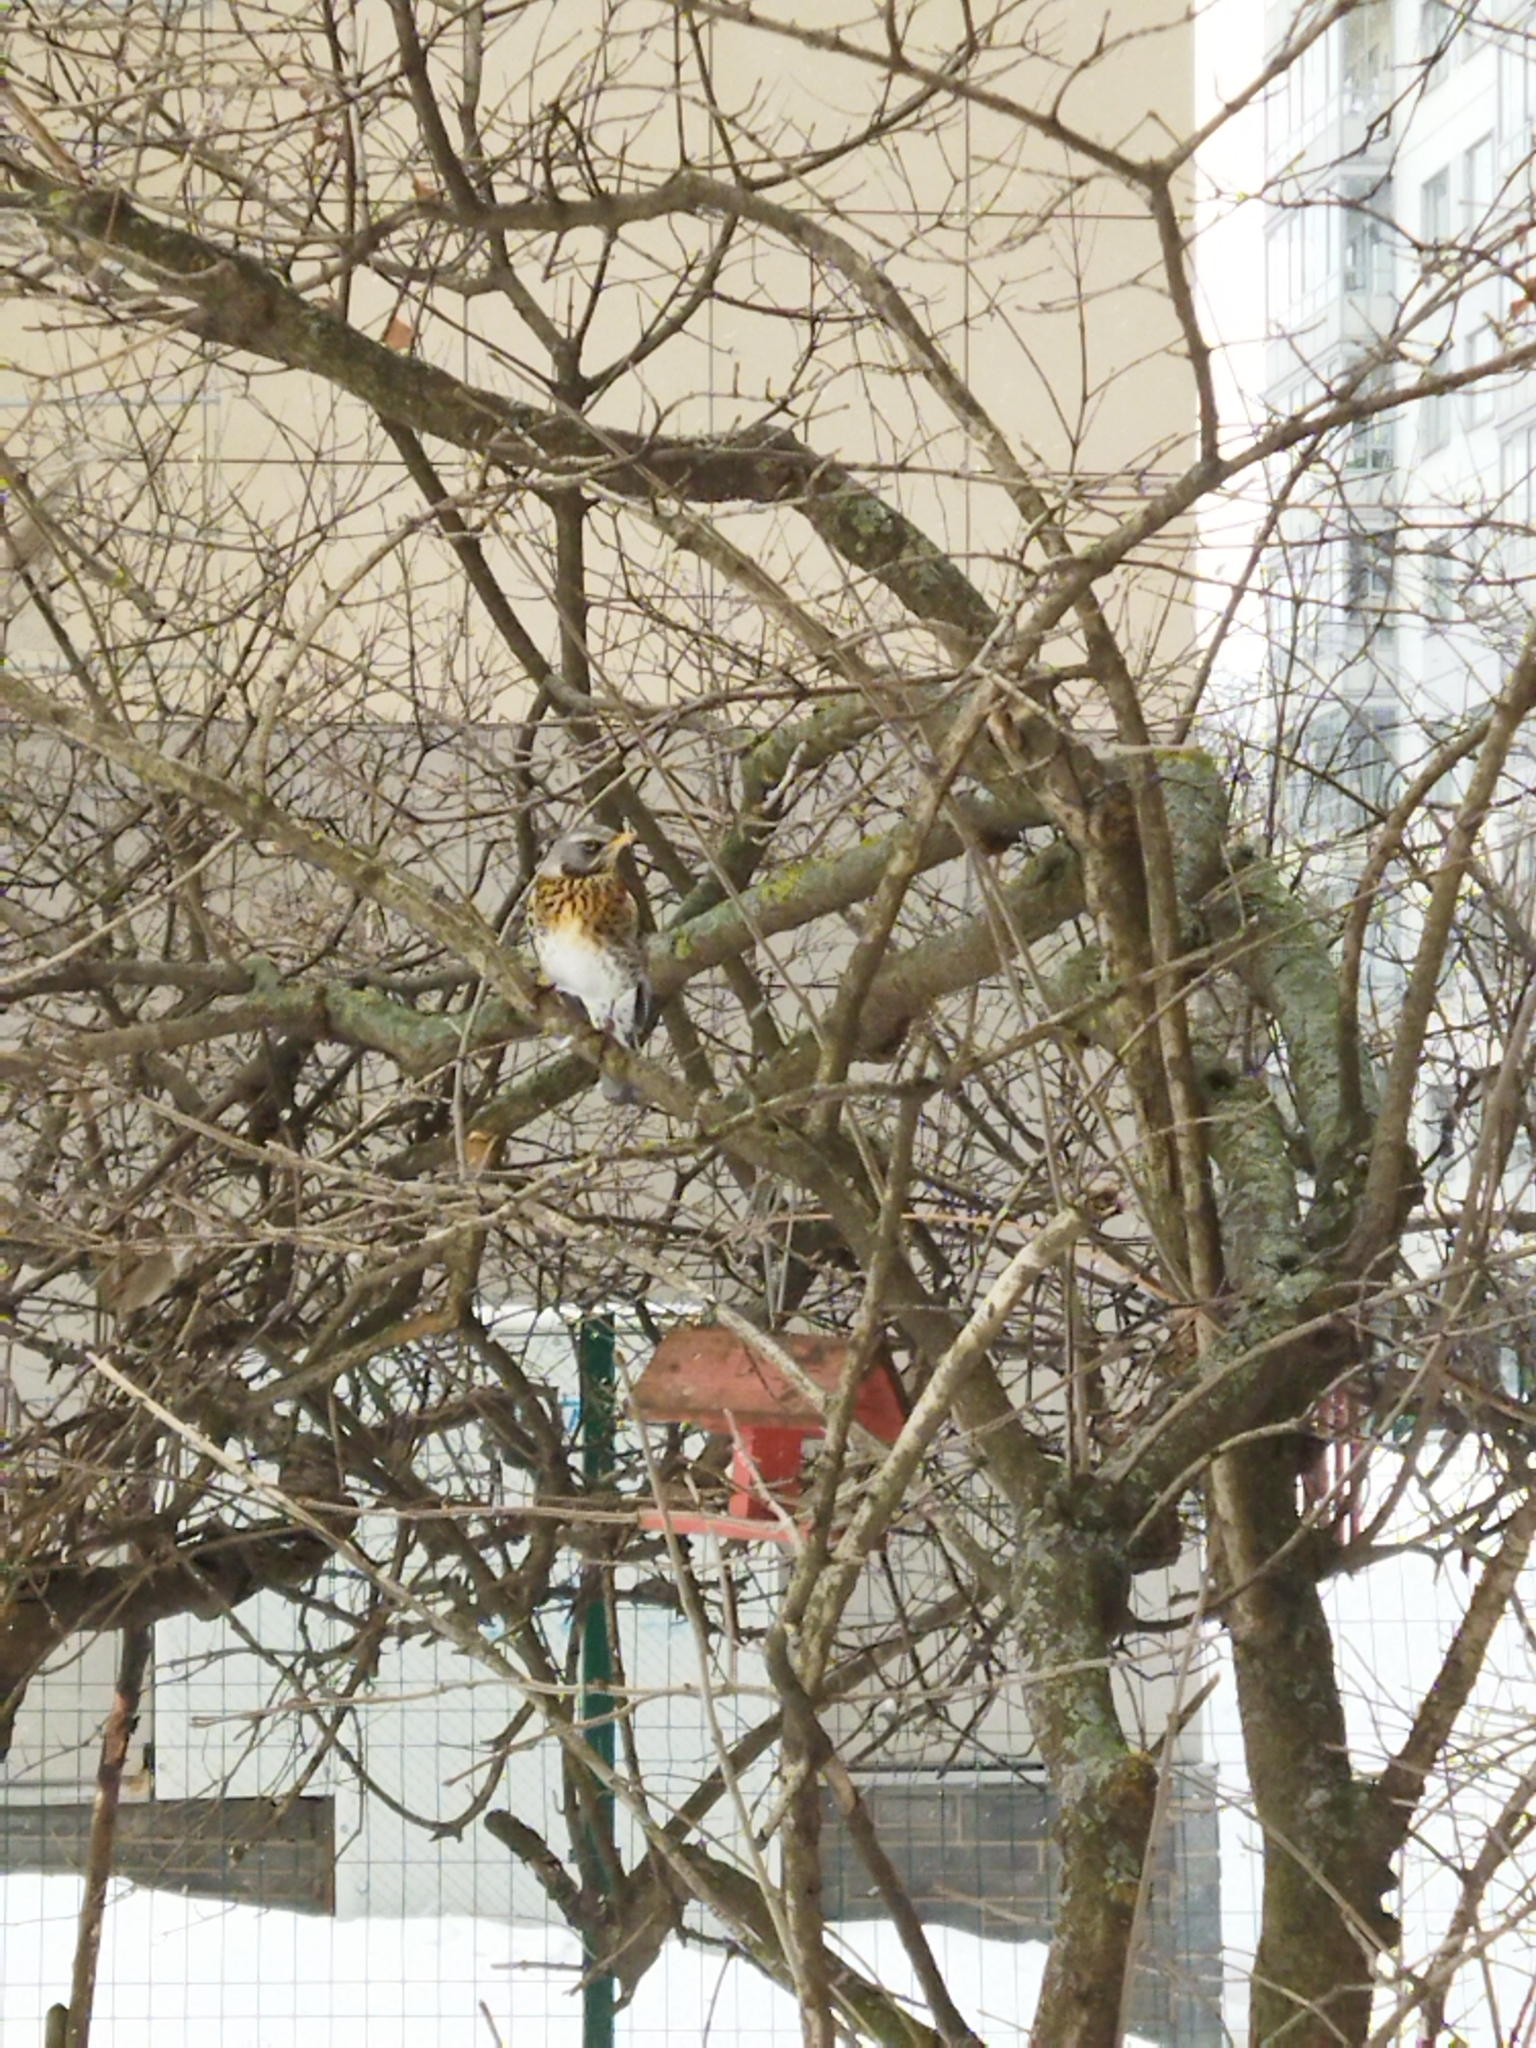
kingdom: Animalia
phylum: Chordata
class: Aves
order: Passeriformes
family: Turdidae
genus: Turdus
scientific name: Turdus pilaris
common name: Fieldfare
